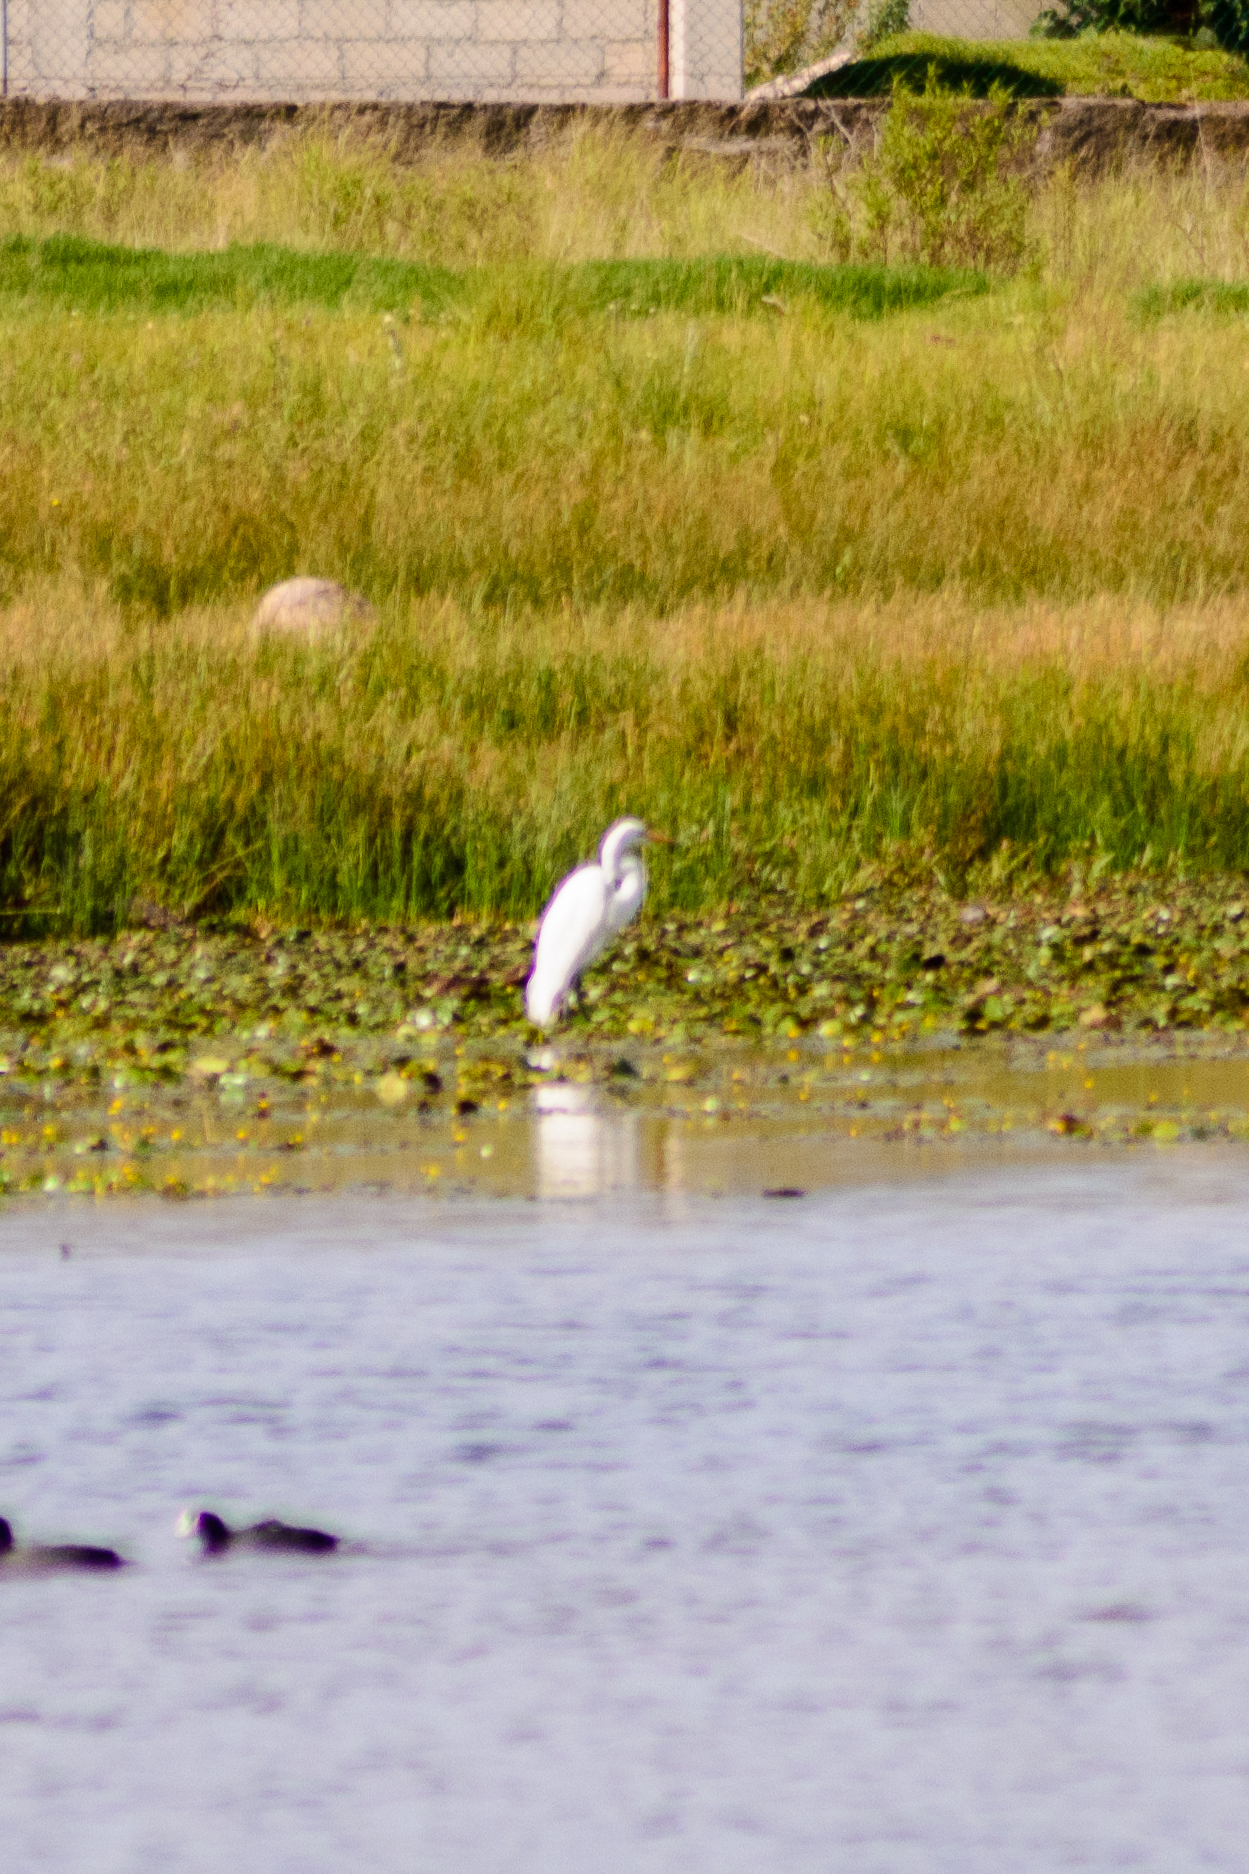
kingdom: Animalia
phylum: Chordata
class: Aves
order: Pelecaniformes
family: Ardeidae
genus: Ardea
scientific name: Ardea alba
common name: Great egret
